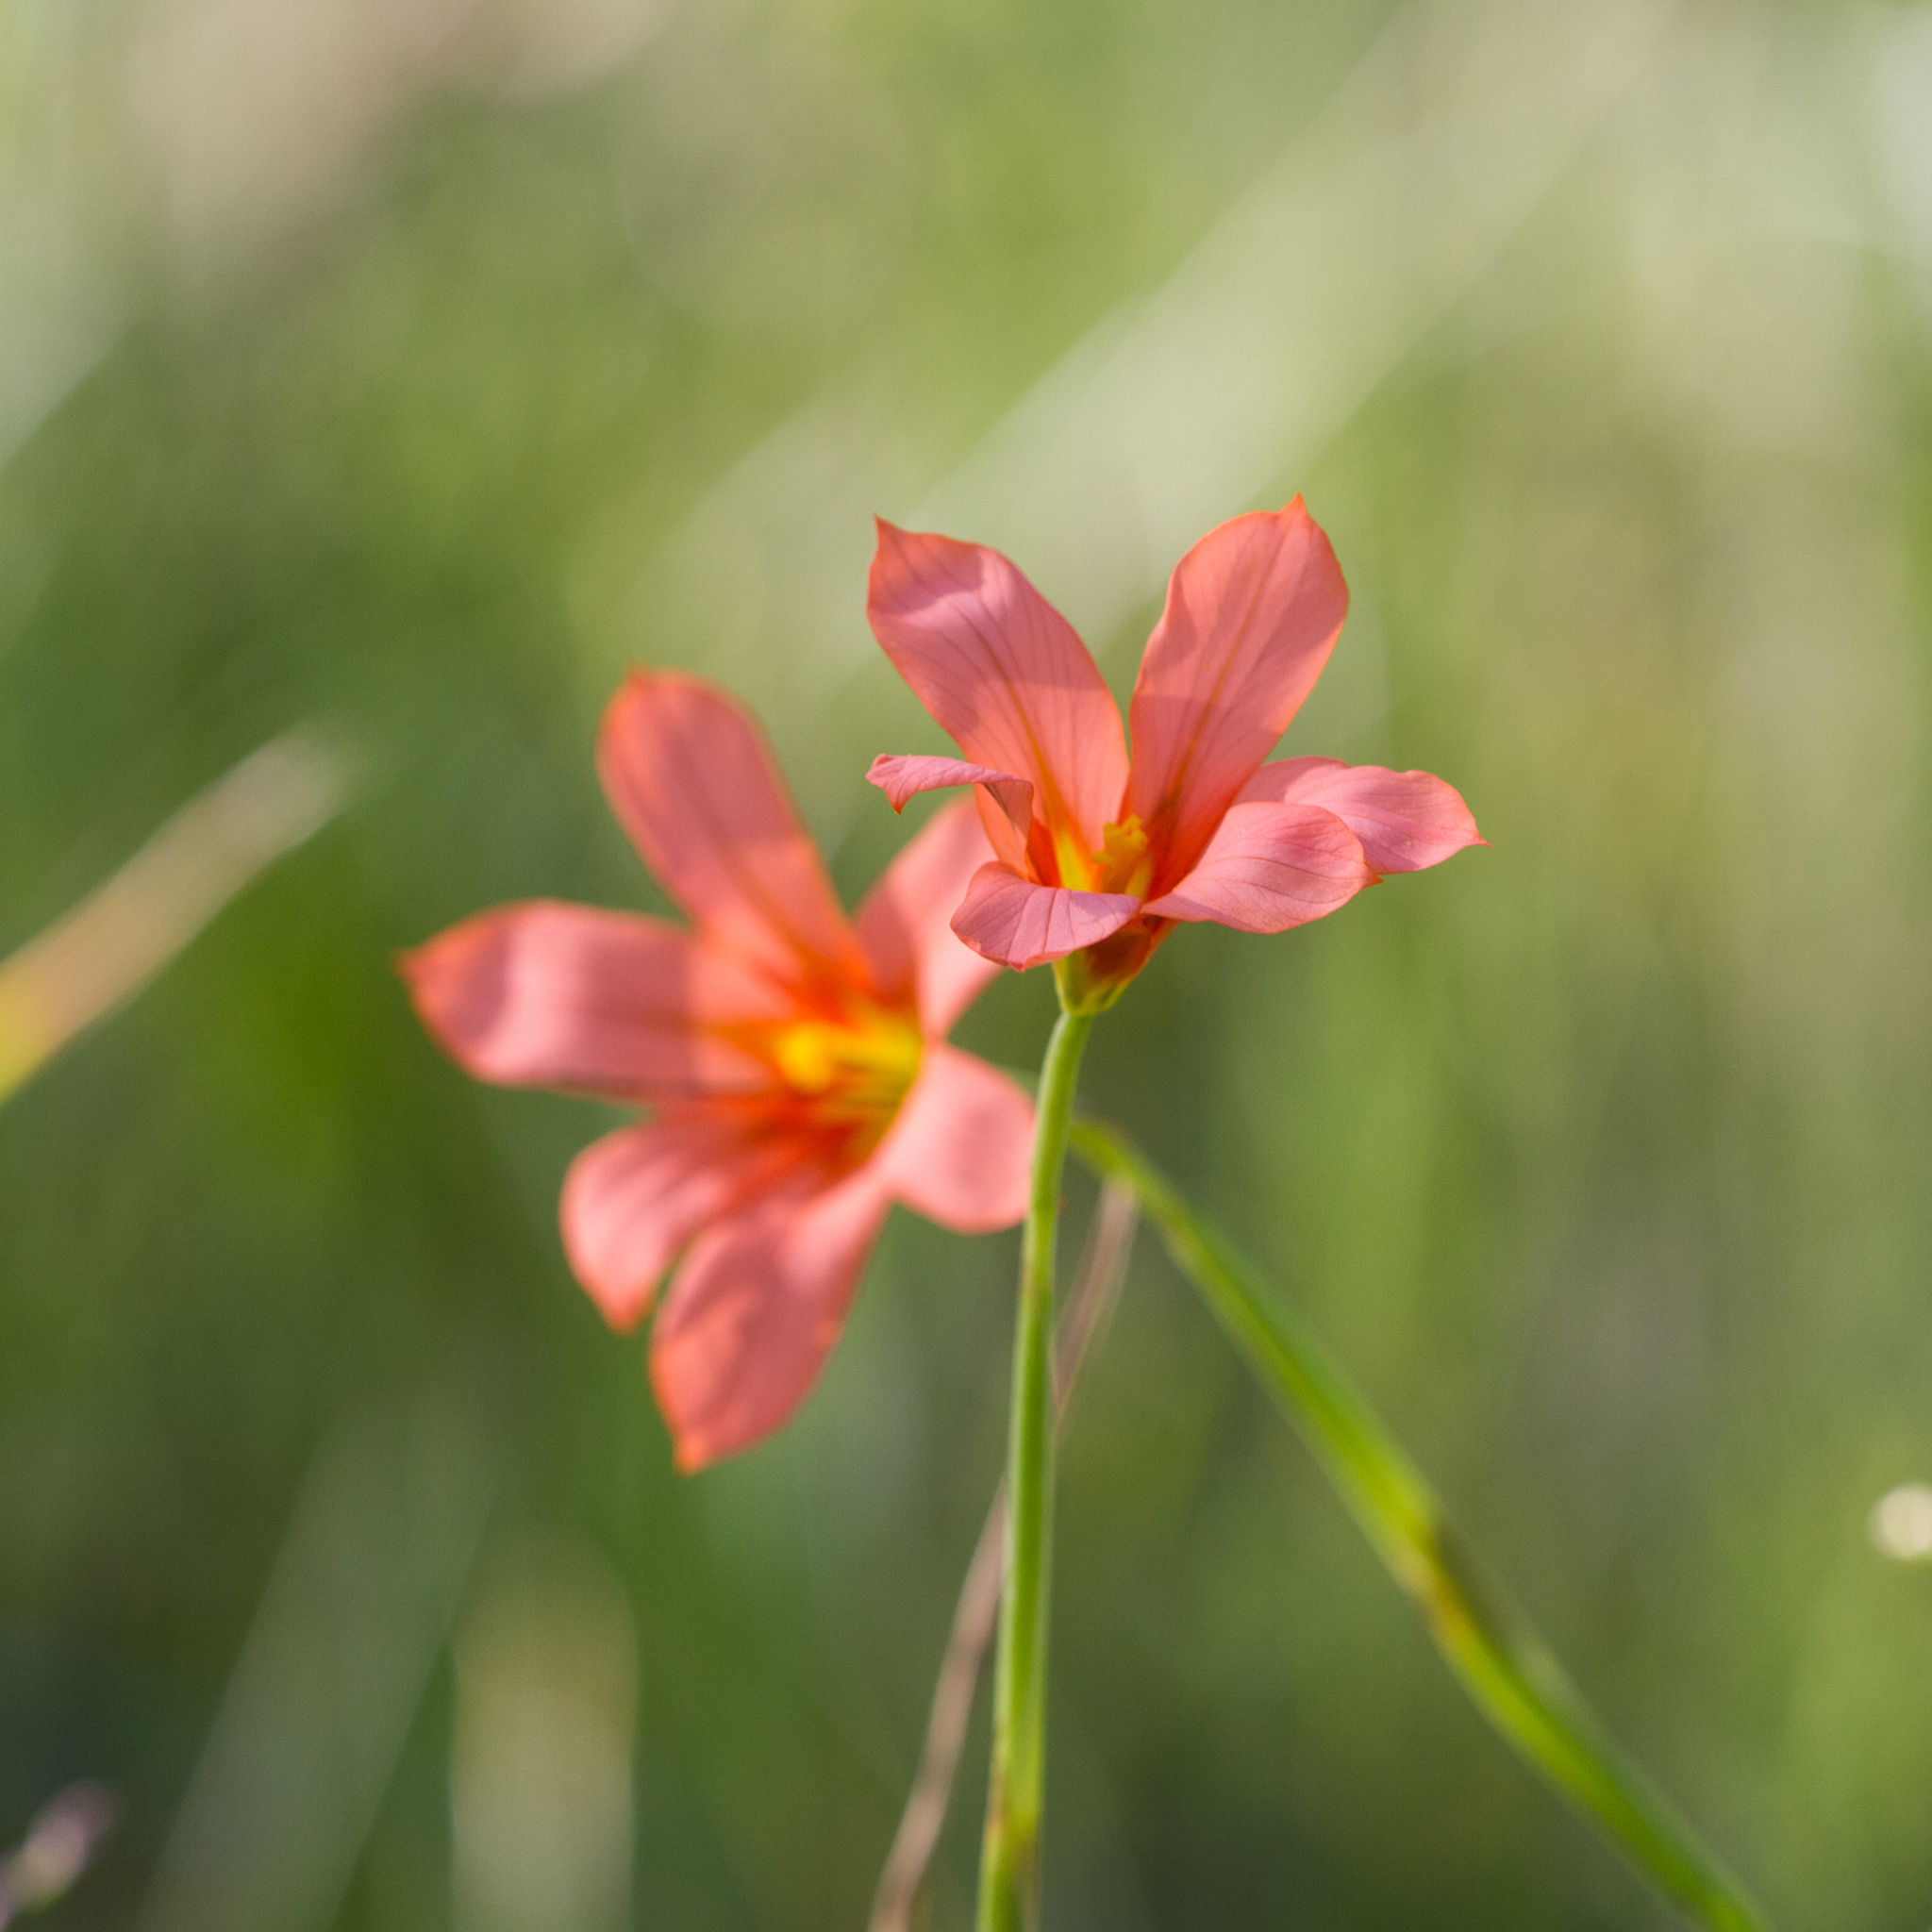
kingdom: Plantae
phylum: Tracheophyta
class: Liliopsida
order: Asparagales
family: Iridaceae
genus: Moraea
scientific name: Moraea flaccida
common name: One-leaf cape-tulip
